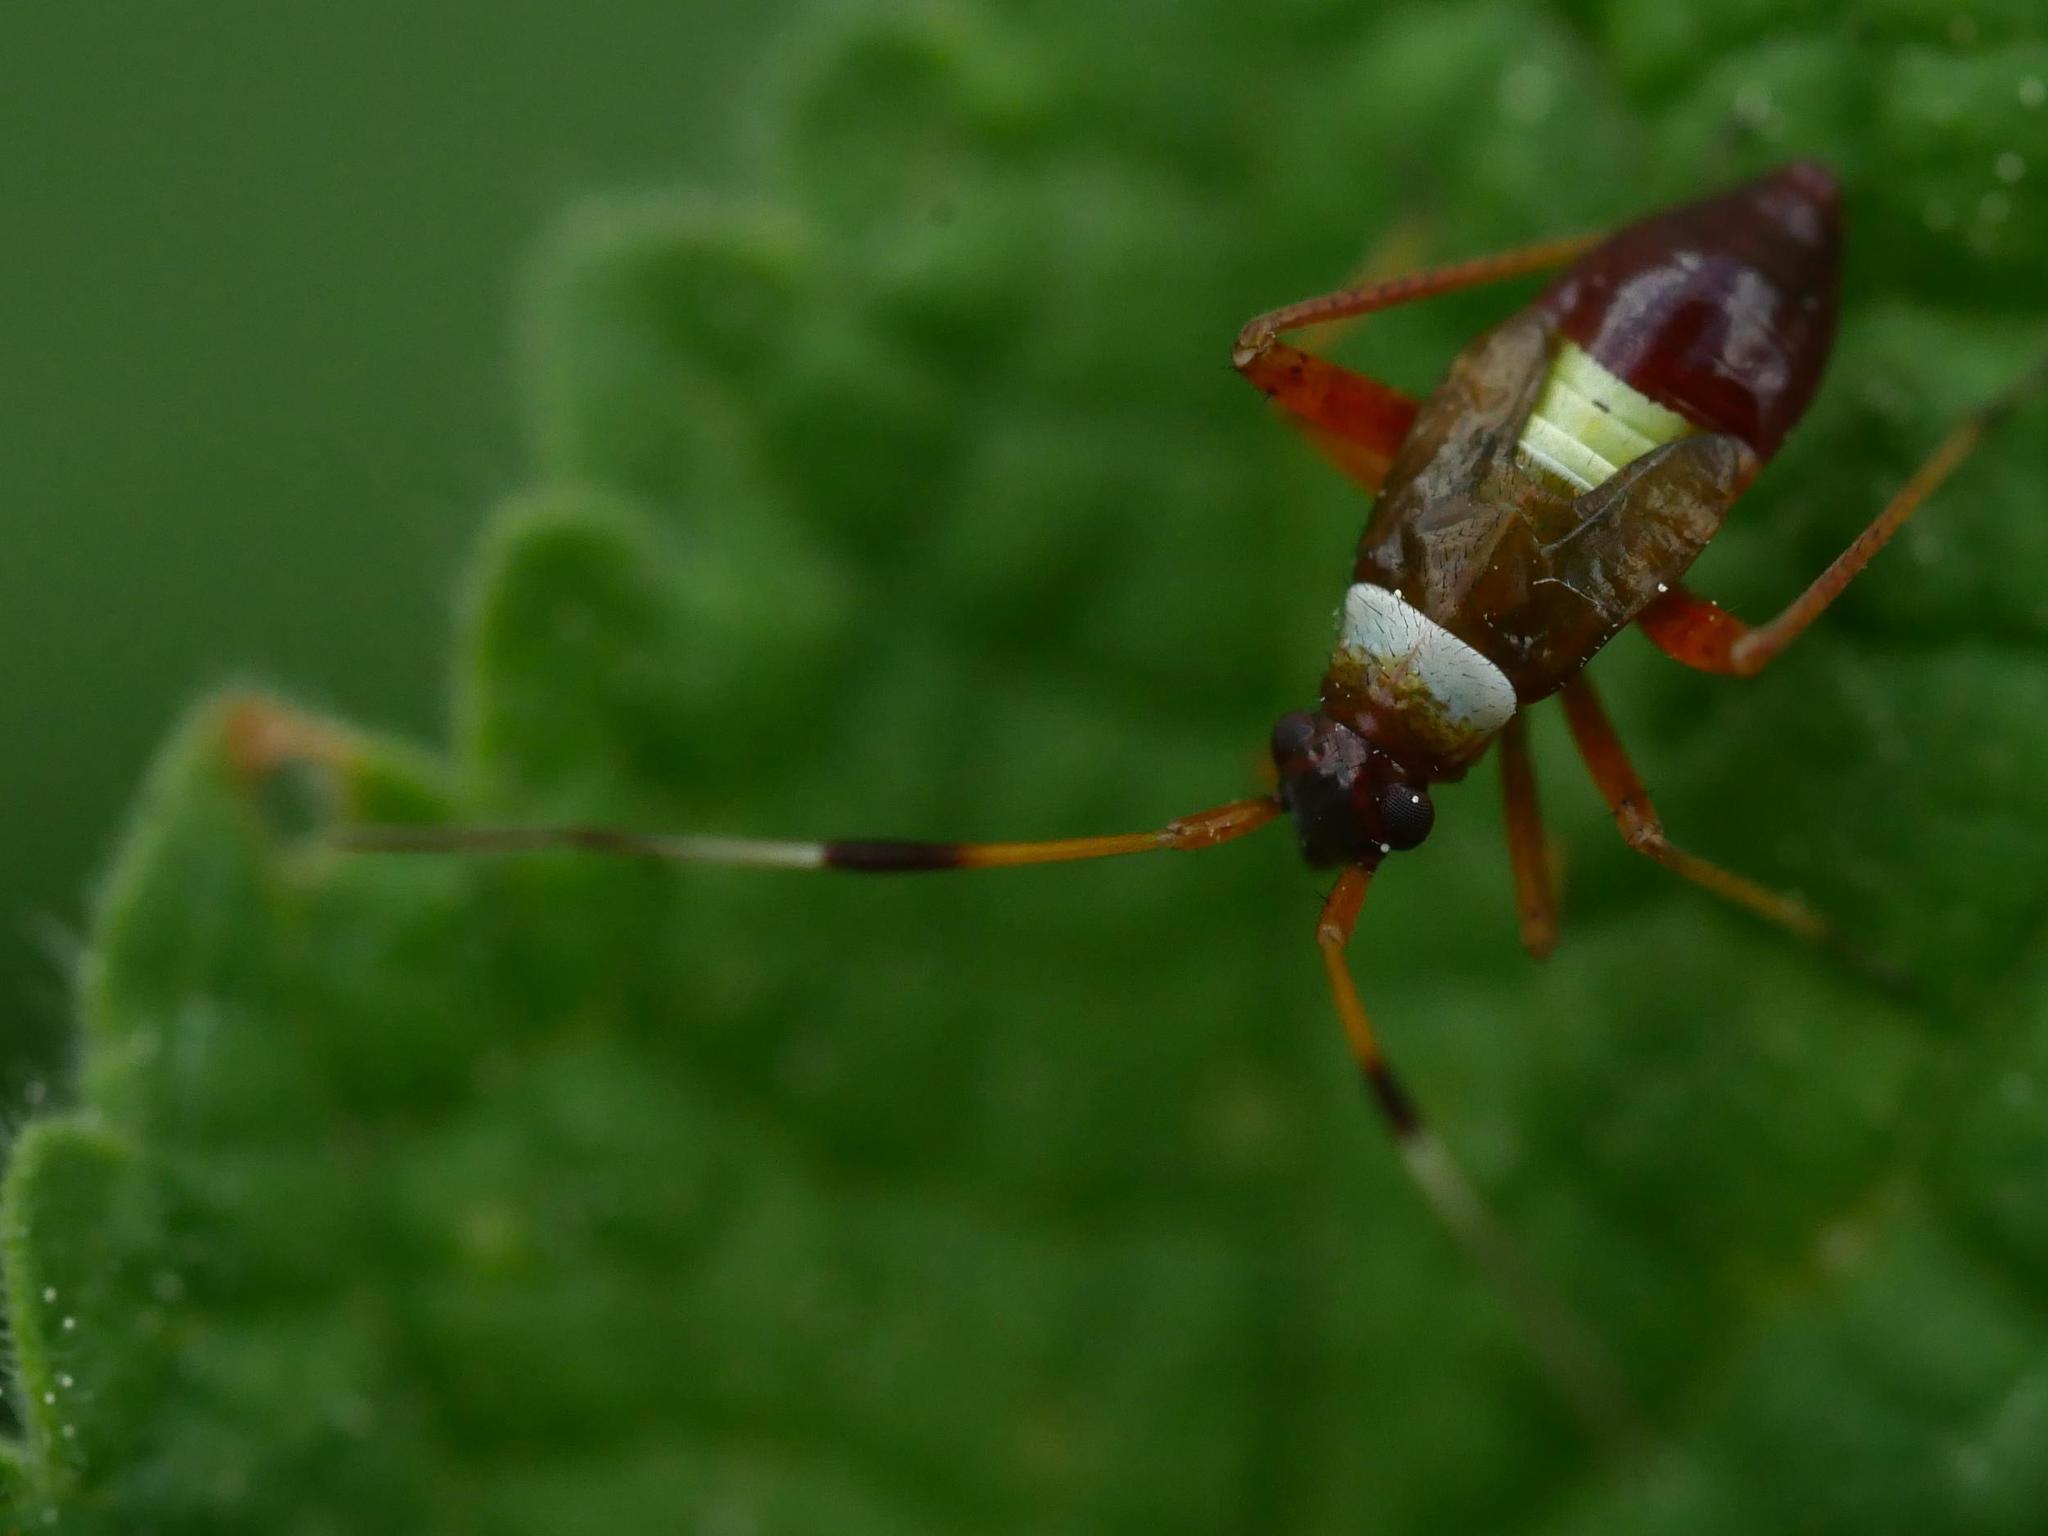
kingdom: Animalia
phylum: Arthropoda
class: Insecta
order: Hemiptera
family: Miridae
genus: Closterotomus
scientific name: Closterotomus biclavatus
